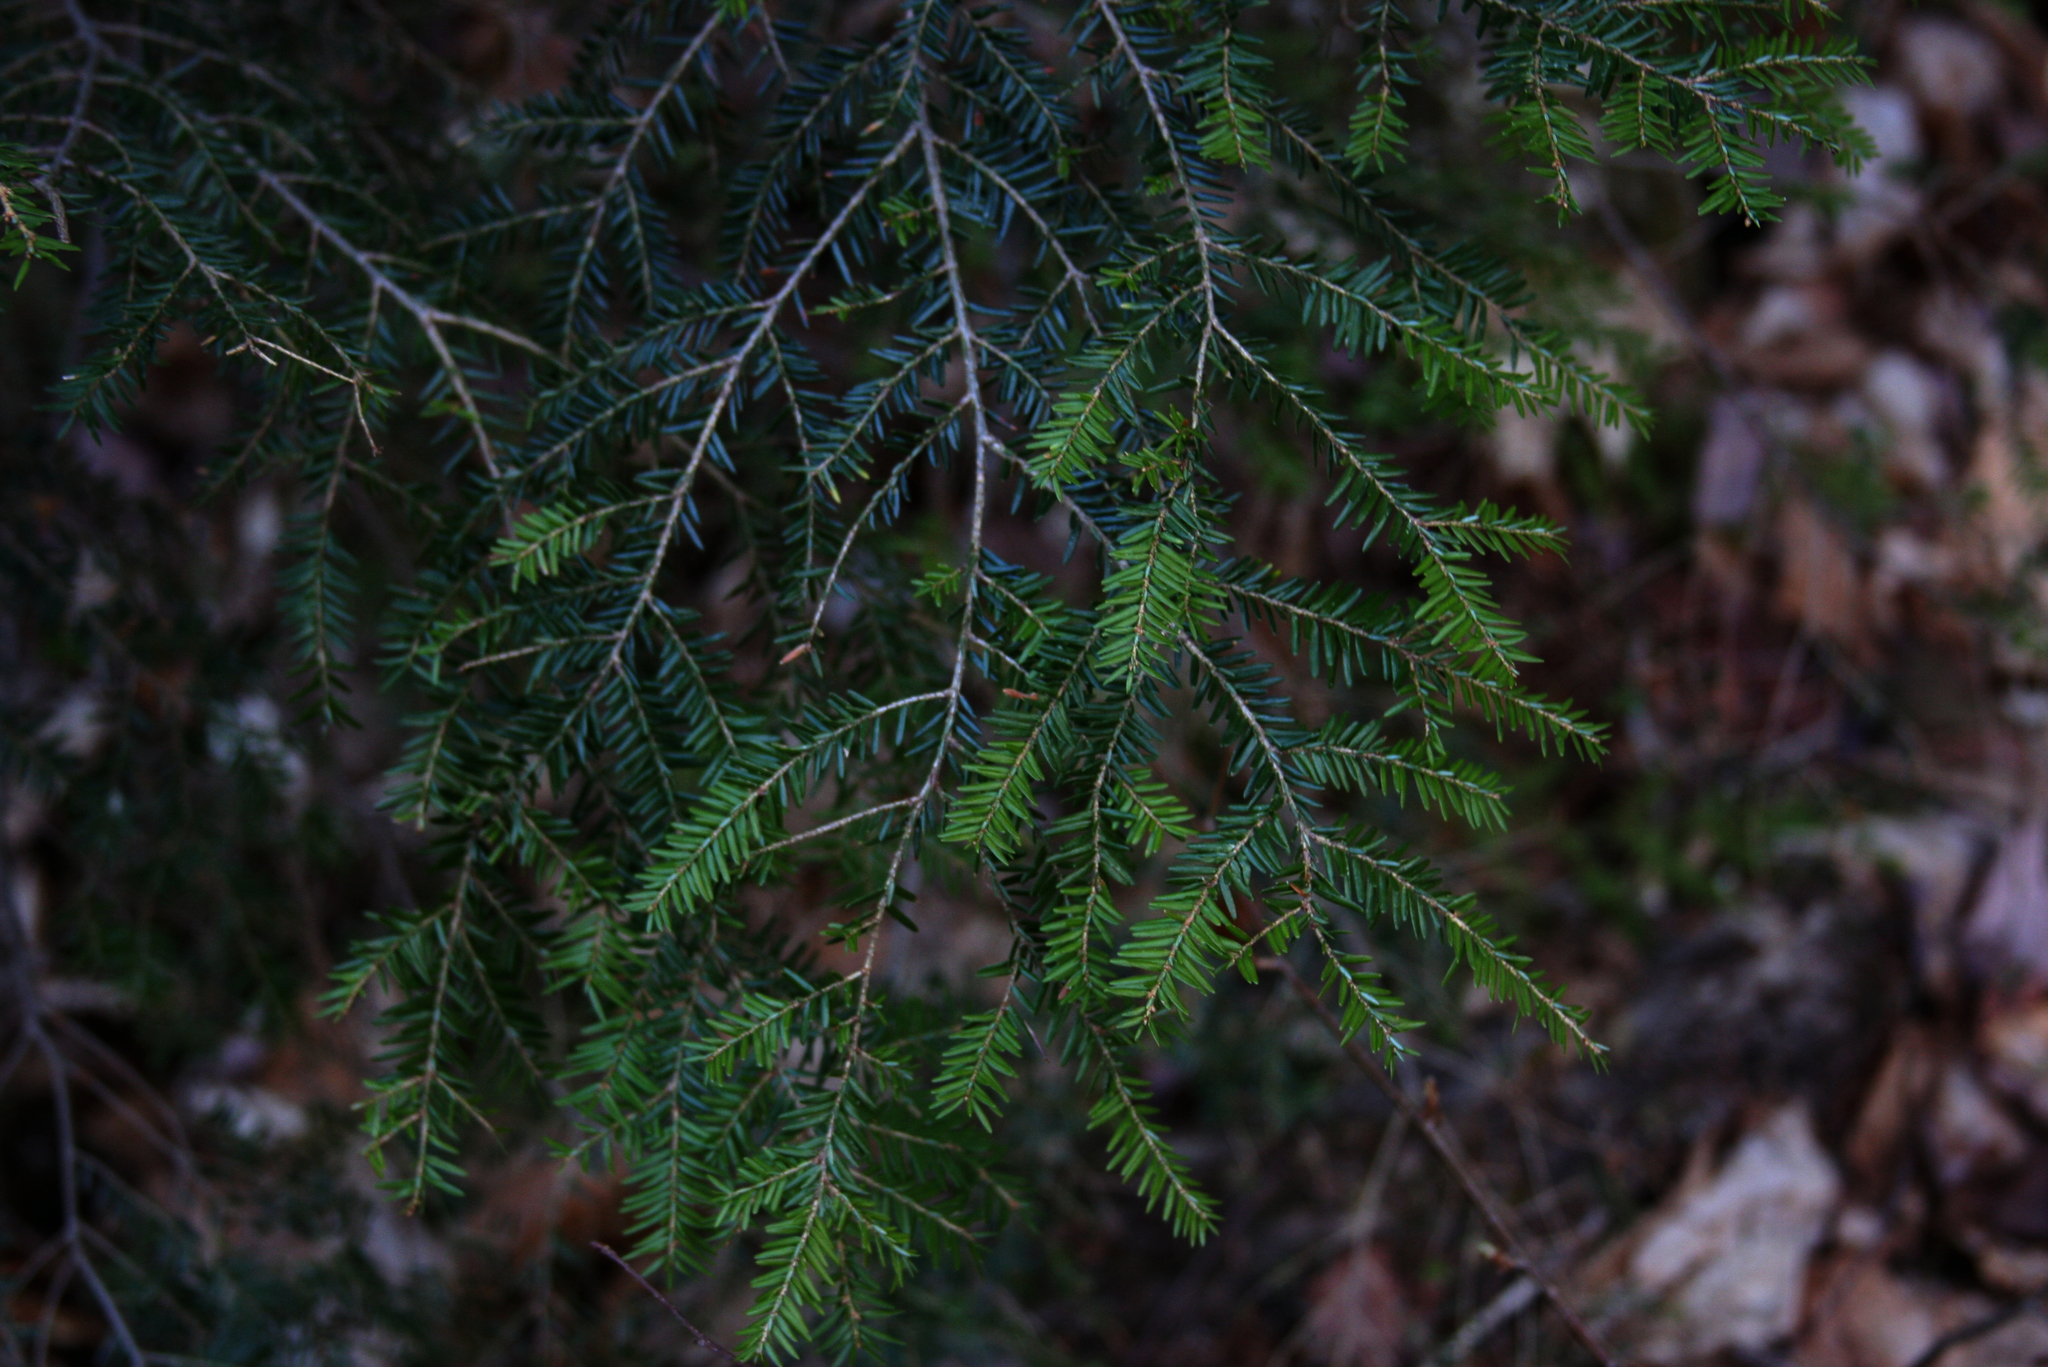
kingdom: Plantae
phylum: Tracheophyta
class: Pinopsida
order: Pinales
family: Pinaceae
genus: Tsuga
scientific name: Tsuga canadensis
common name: Eastern hemlock
